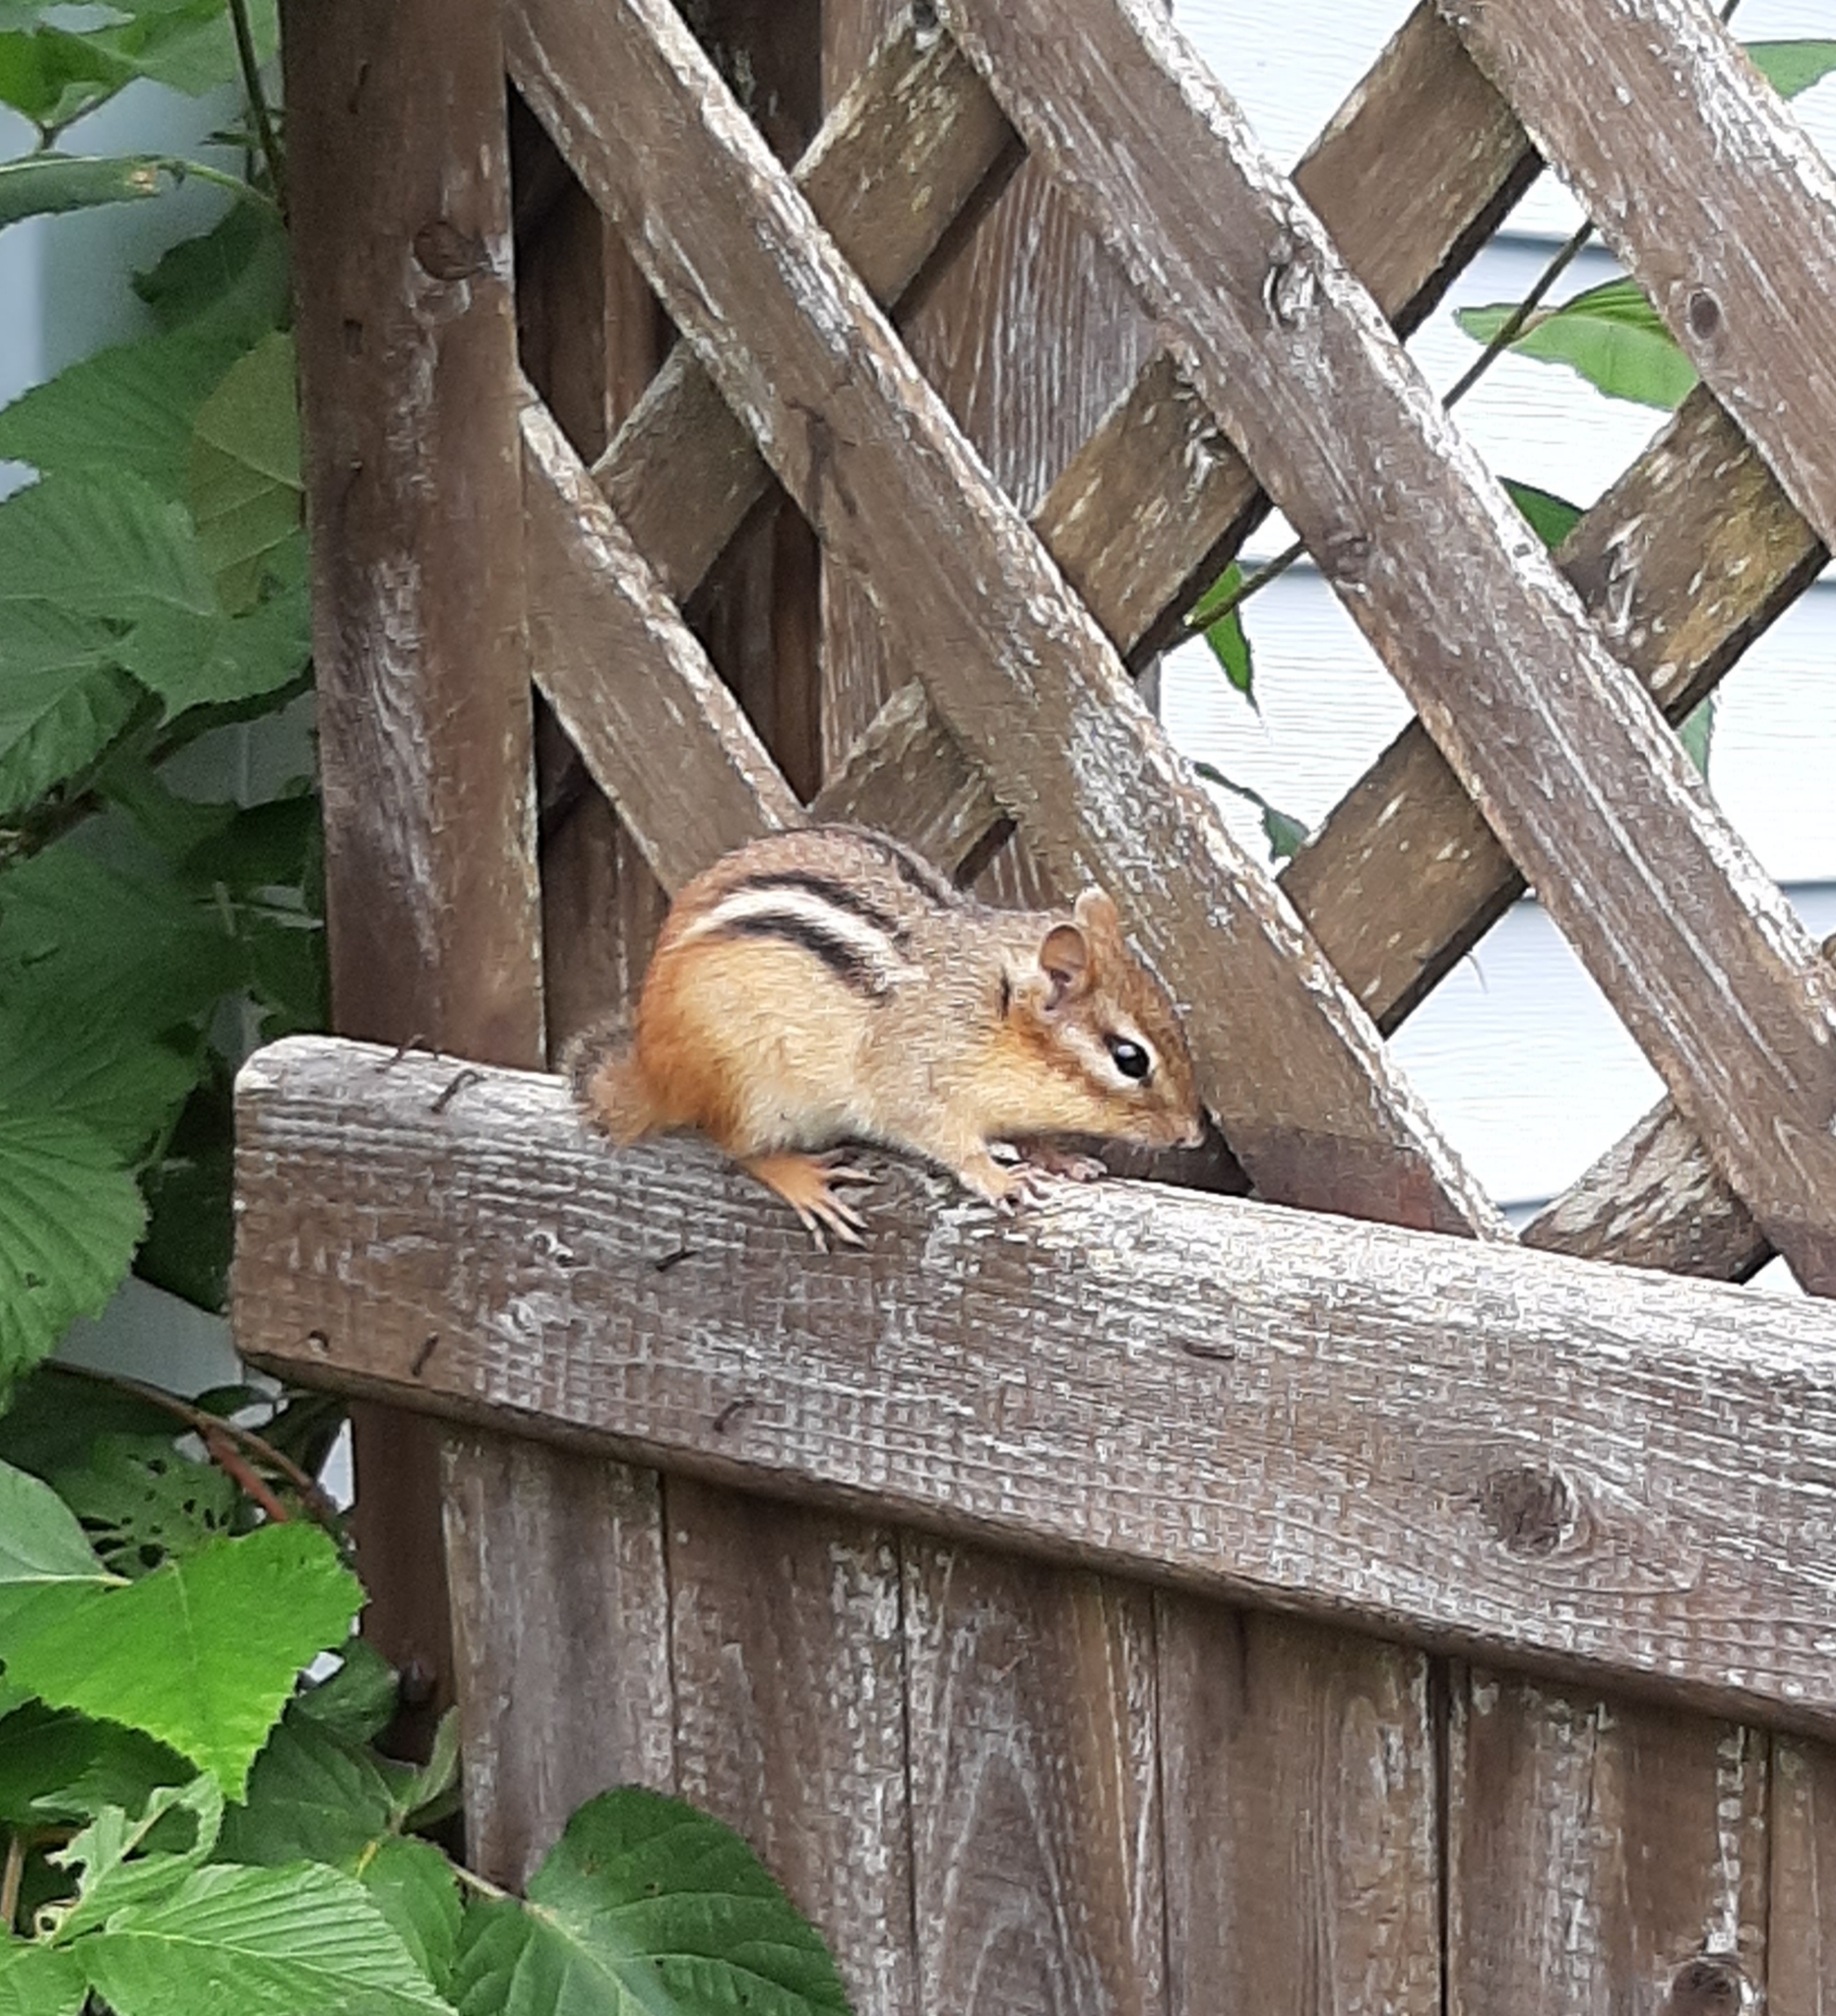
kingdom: Animalia
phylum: Chordata
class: Mammalia
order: Rodentia
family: Sciuridae
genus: Tamias
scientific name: Tamias striatus
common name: Eastern chipmunk
